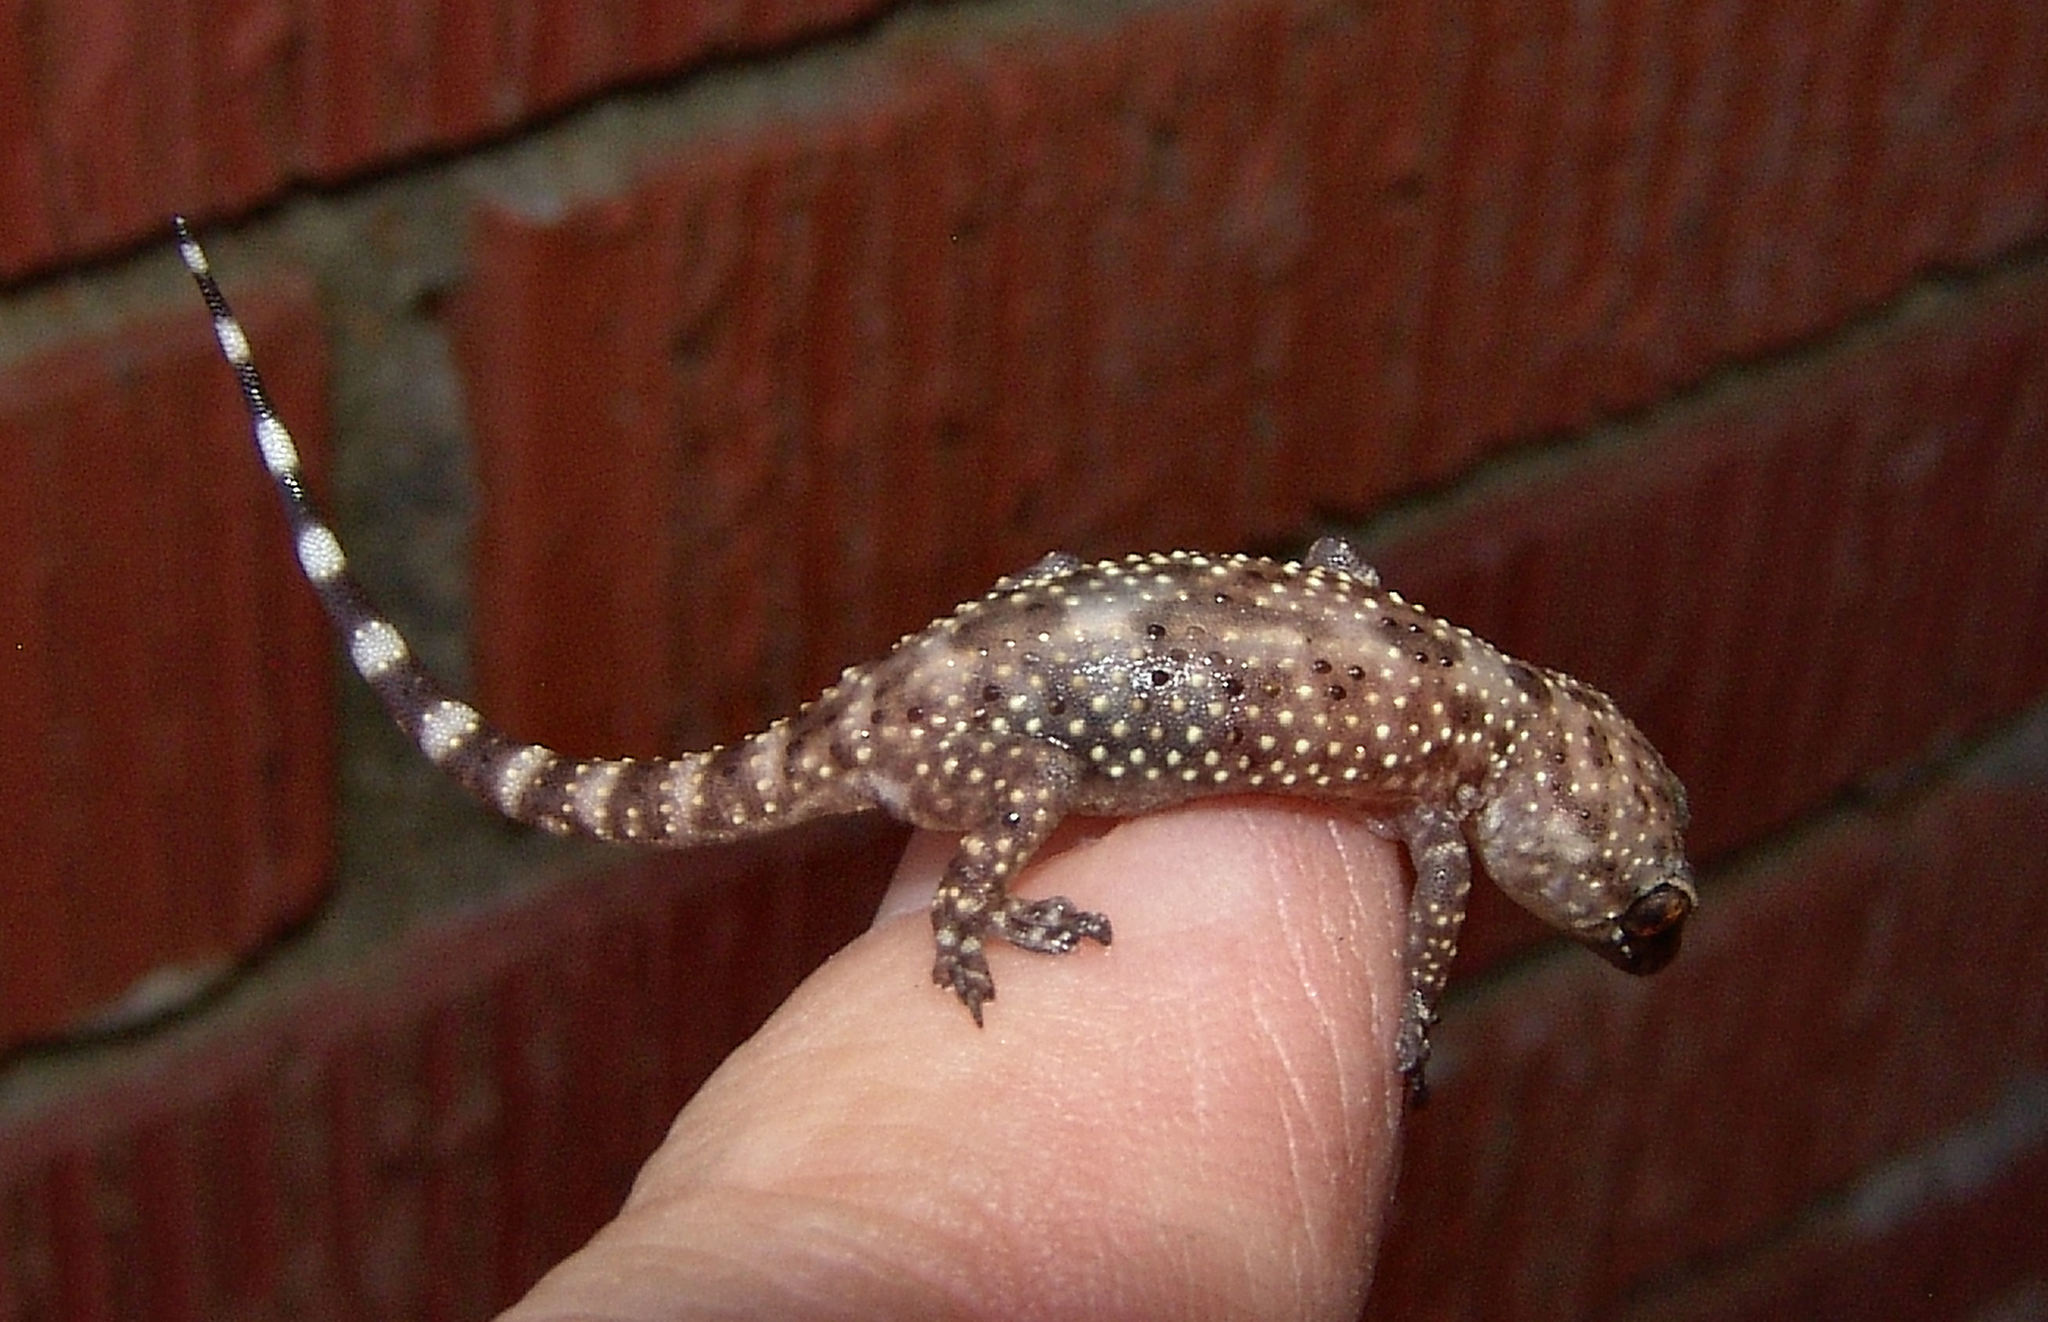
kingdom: Animalia
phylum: Chordata
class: Squamata
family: Gekkonidae
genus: Hemidactylus
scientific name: Hemidactylus turcicus
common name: Turkish gecko
